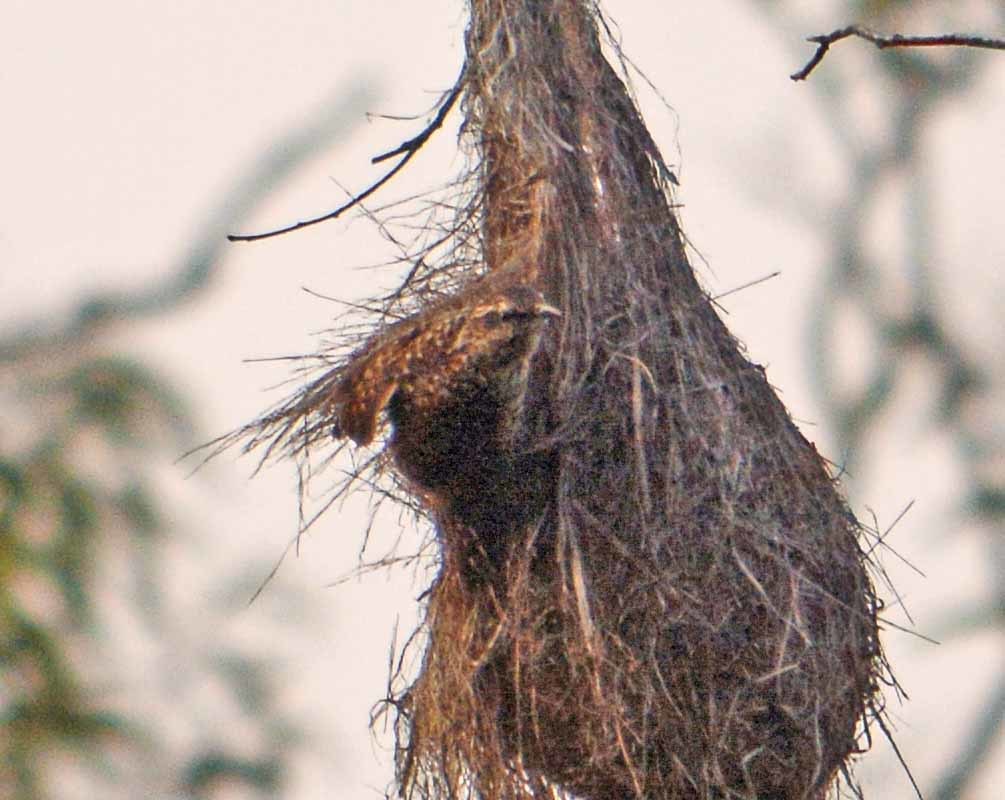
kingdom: Animalia
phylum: Chordata
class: Aves
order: Passeriformes
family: Troglodytidae
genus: Campylorhynchus
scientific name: Campylorhynchus gularis
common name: Spotted wren
